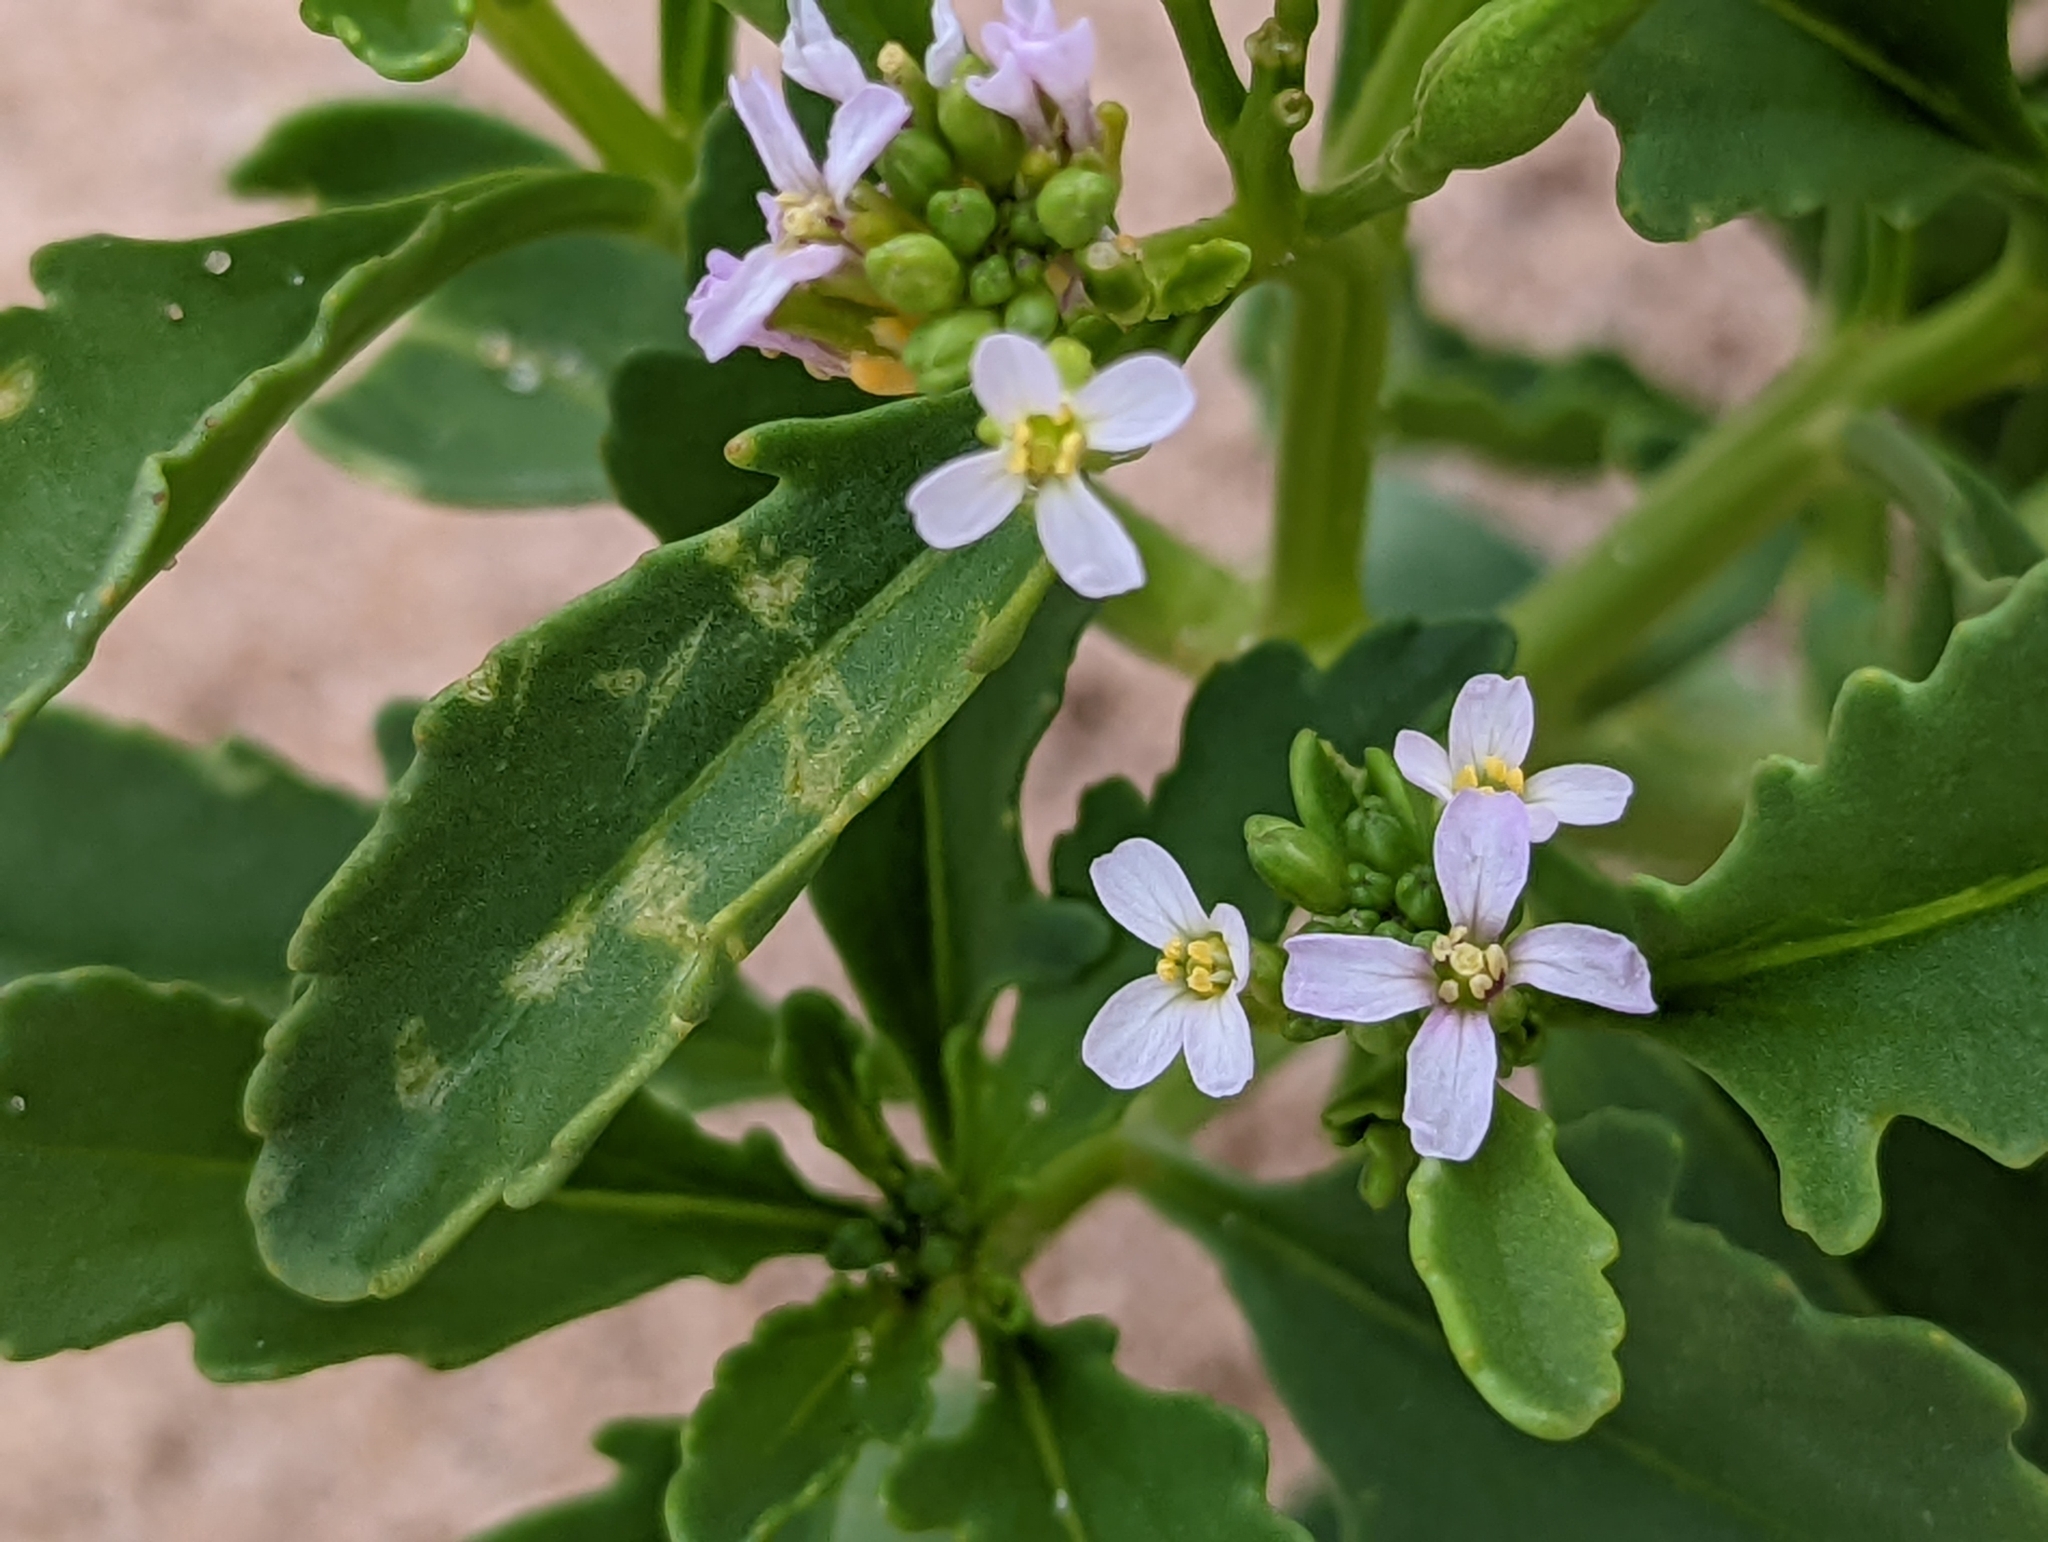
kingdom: Plantae
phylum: Tracheophyta
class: Magnoliopsida
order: Brassicales
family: Brassicaceae
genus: Cakile
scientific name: Cakile edentula
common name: American sea rocket
